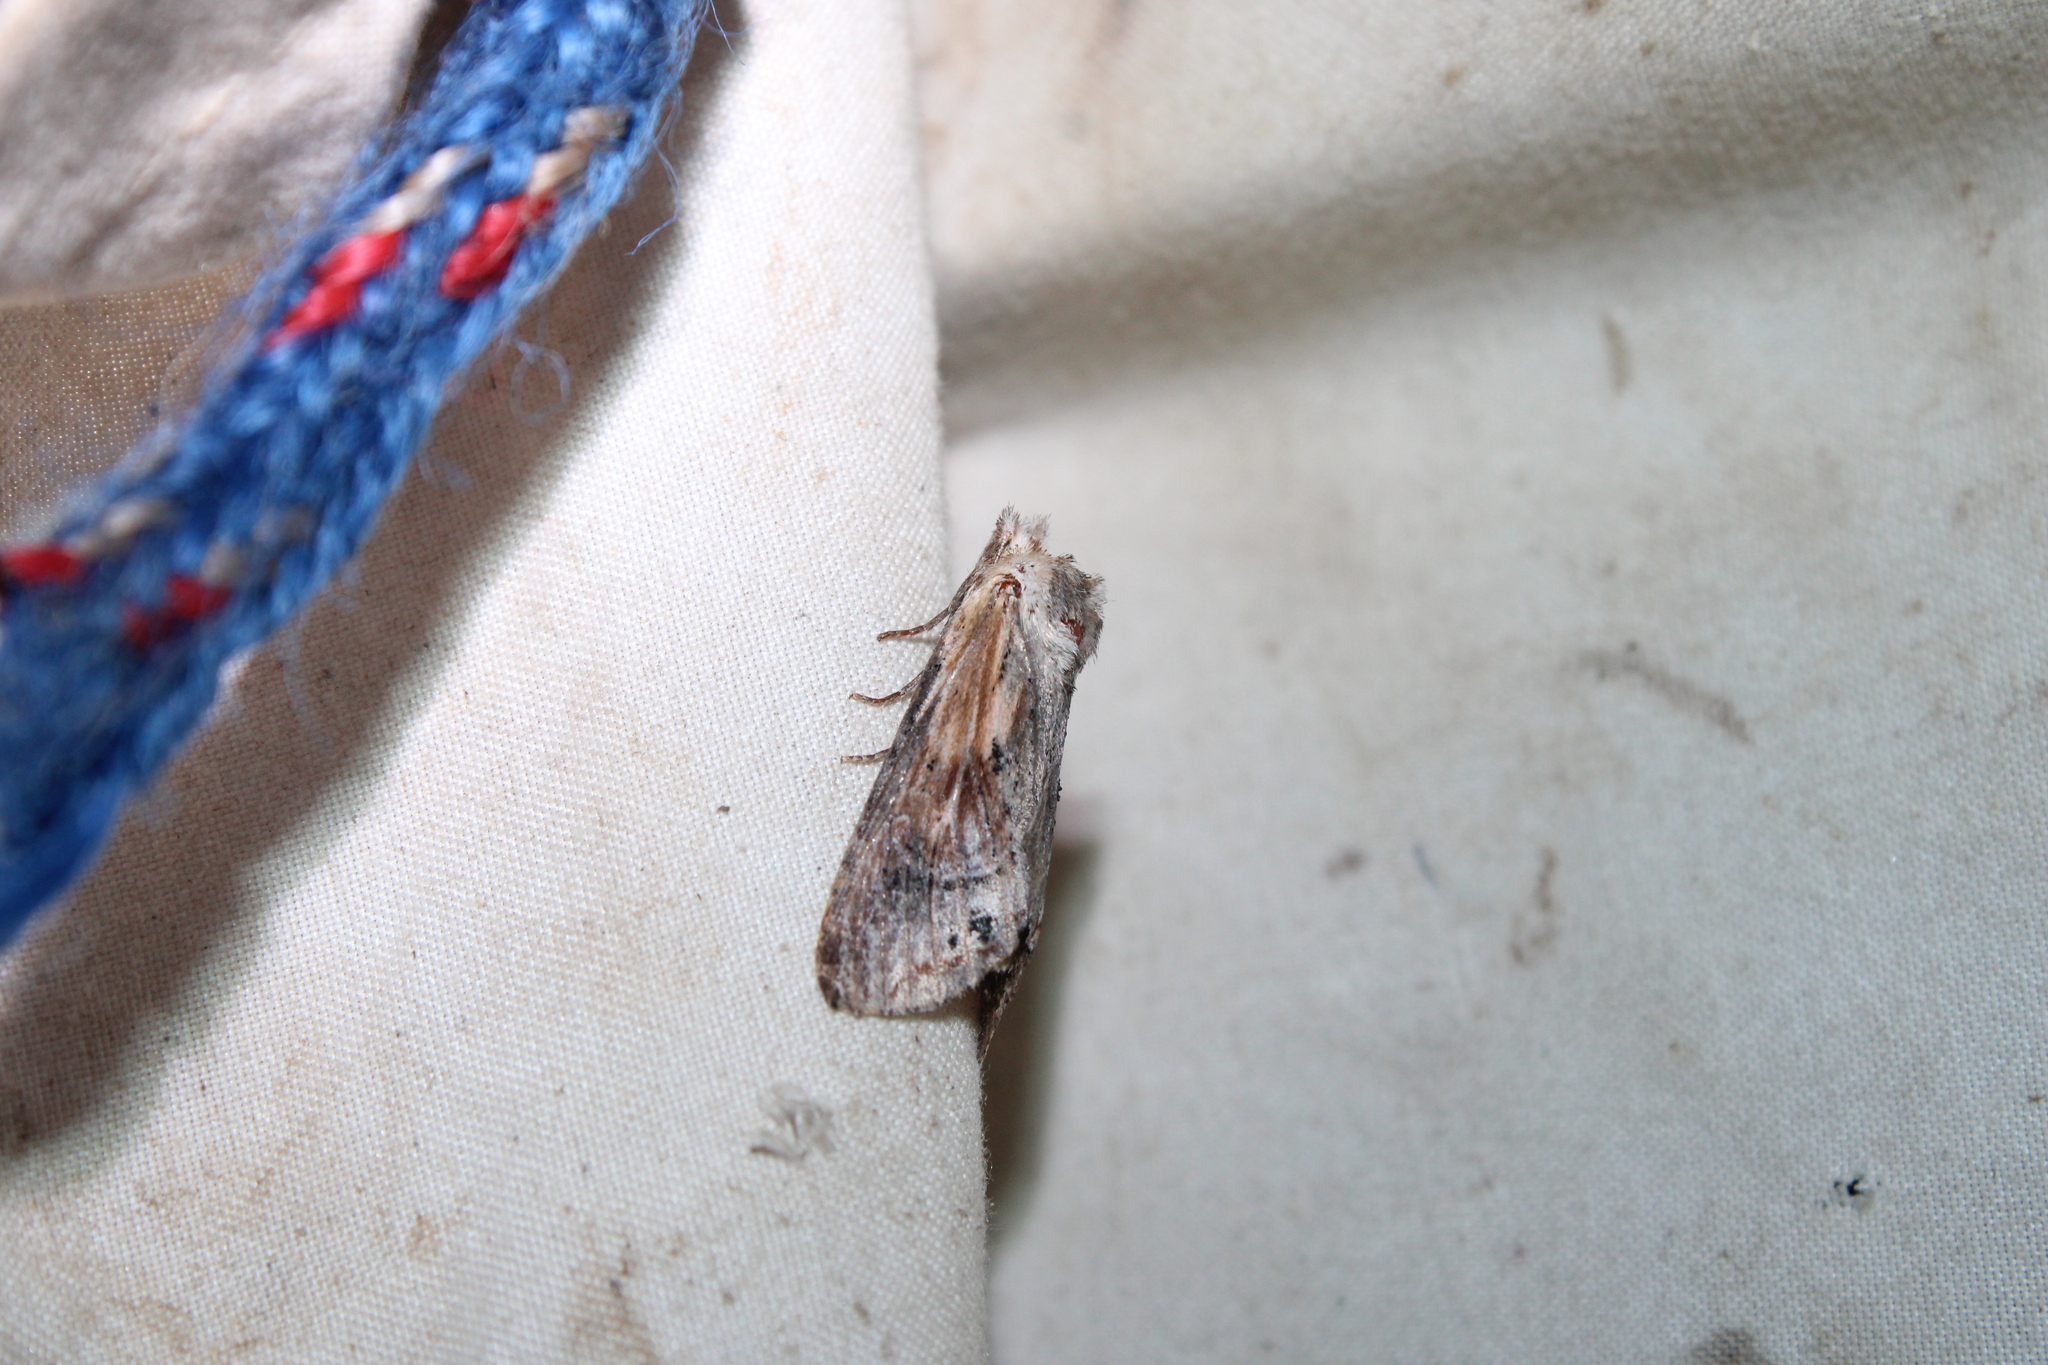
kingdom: Animalia
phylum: Arthropoda
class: Insecta
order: Lepidoptera
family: Notodontidae
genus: Dasylophia
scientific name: Dasylophia anguina
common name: Black-spotted prominent
